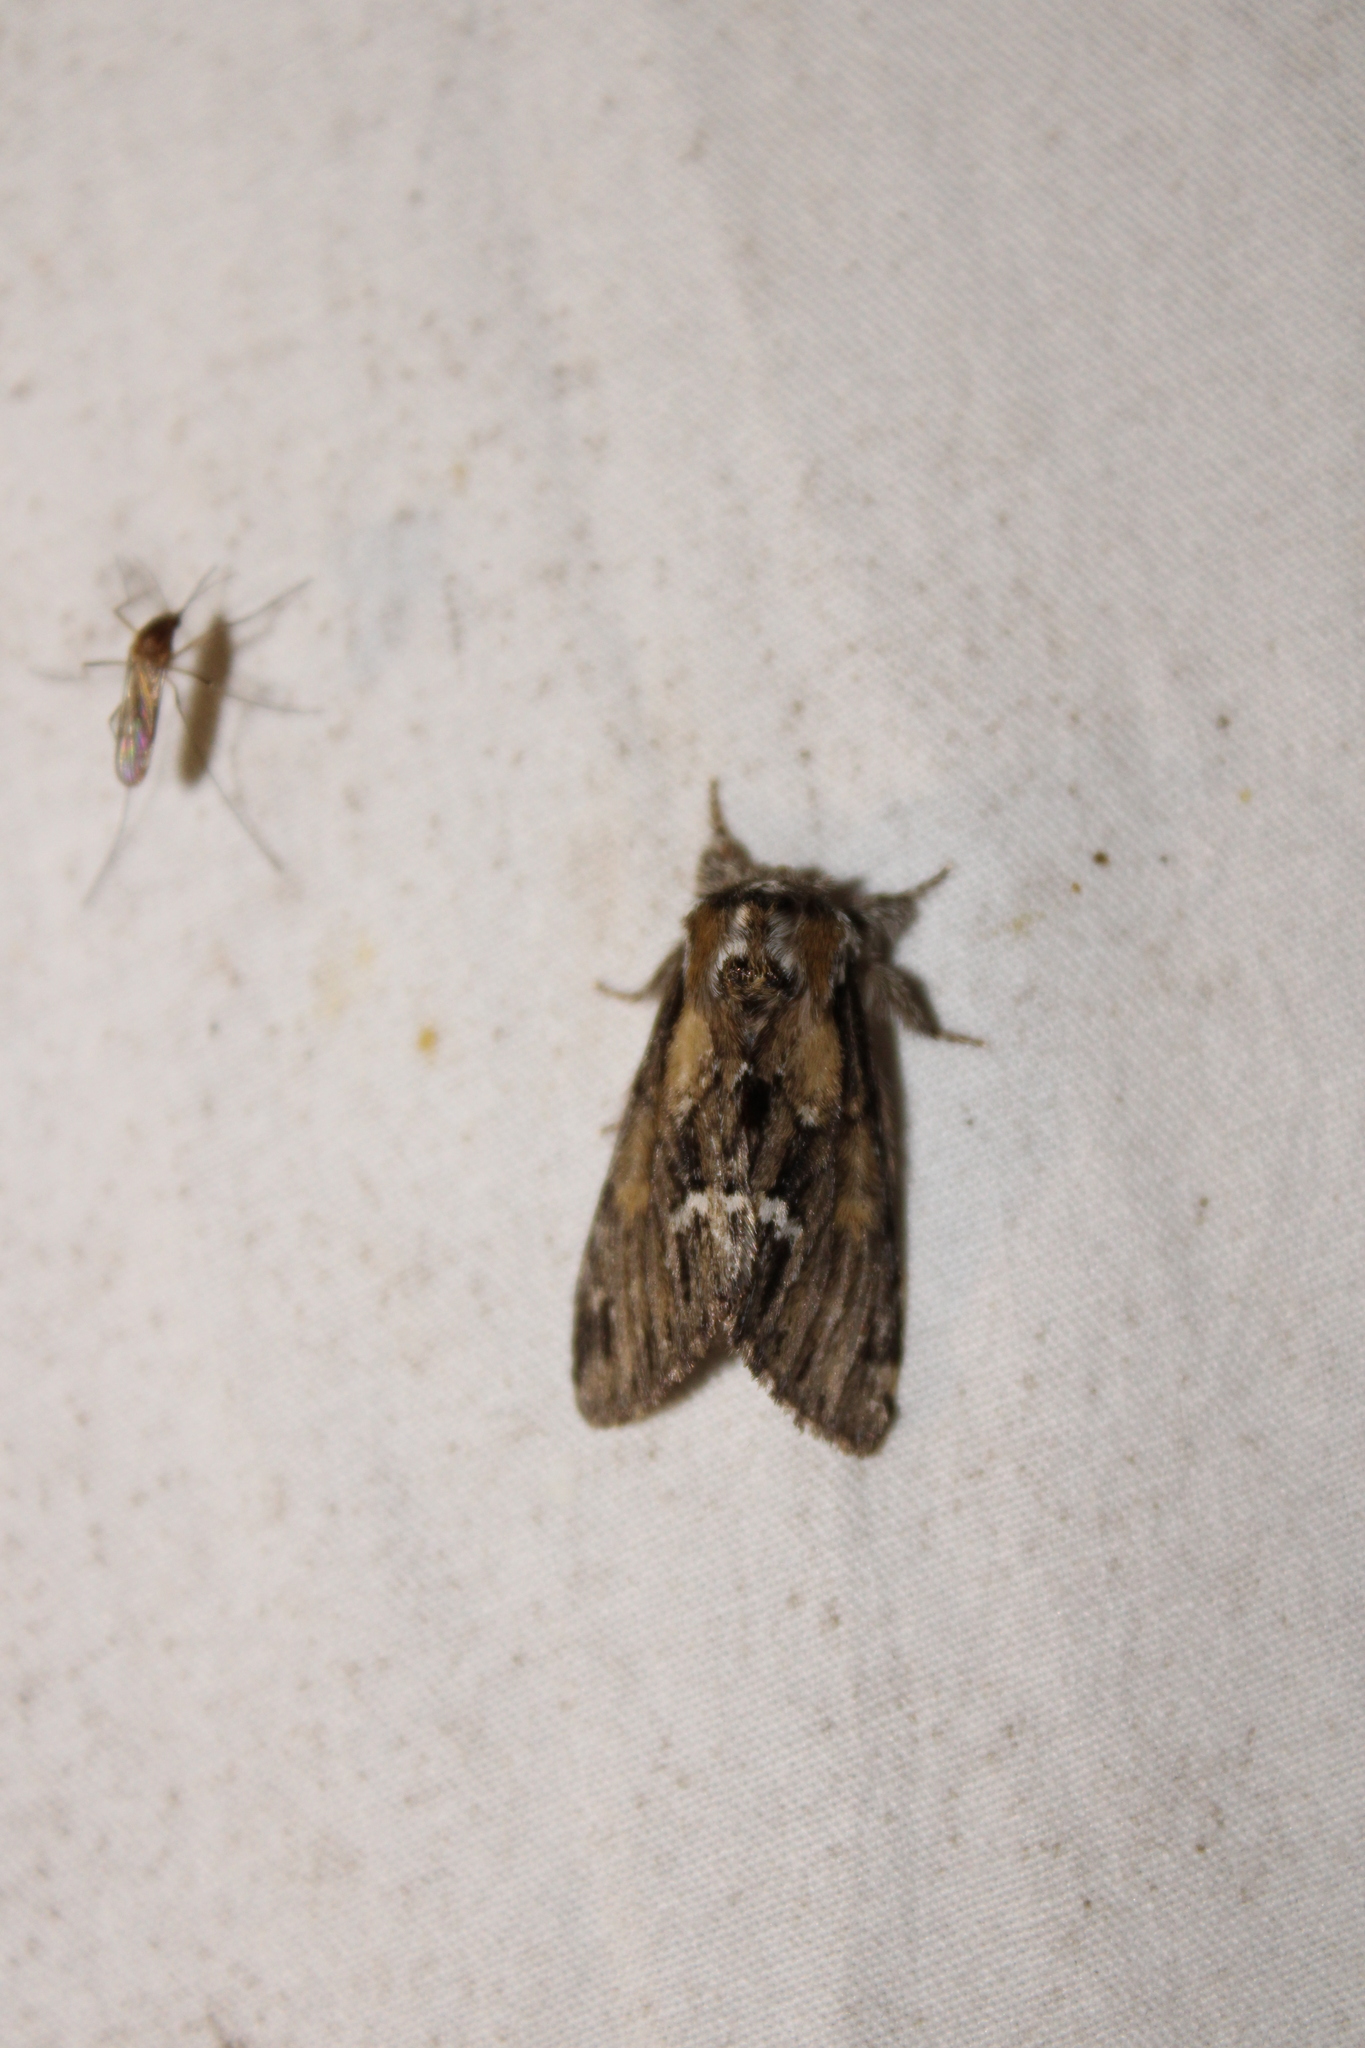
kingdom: Animalia
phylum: Arthropoda
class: Insecta
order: Lepidoptera
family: Notodontidae
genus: Paraeschra
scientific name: Paraeschra georgica
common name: Georgian prominent
